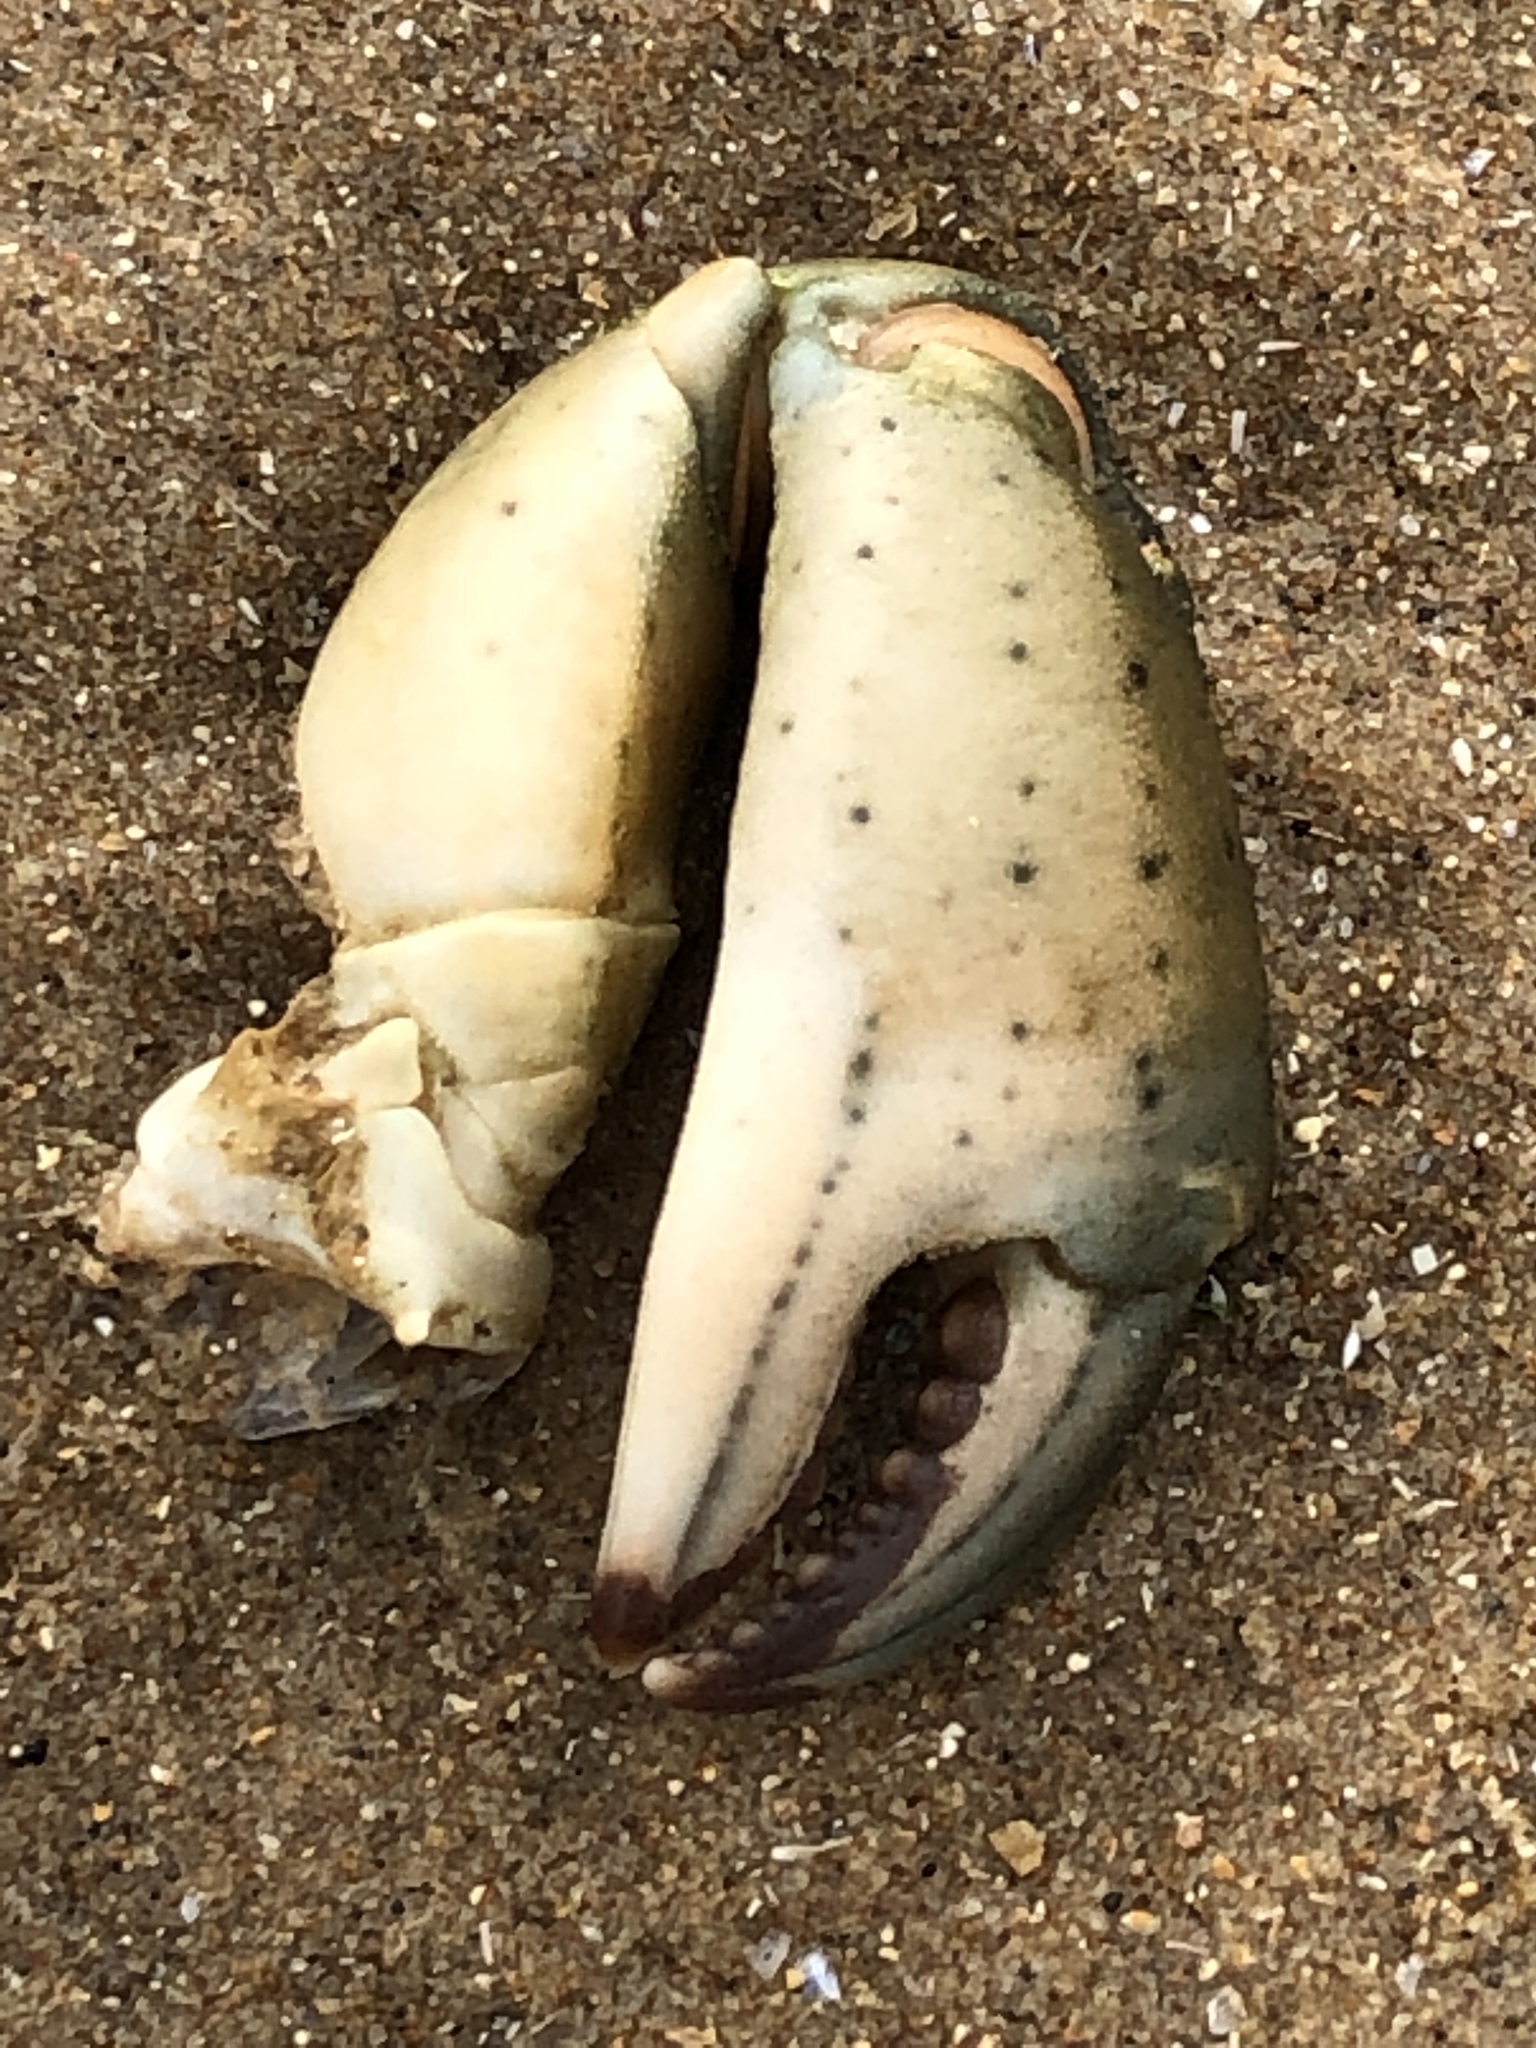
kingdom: Animalia
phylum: Arthropoda
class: Malacostraca
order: Decapoda
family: Carcinidae
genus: Carcinus
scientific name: Carcinus maenas
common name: European green crab
